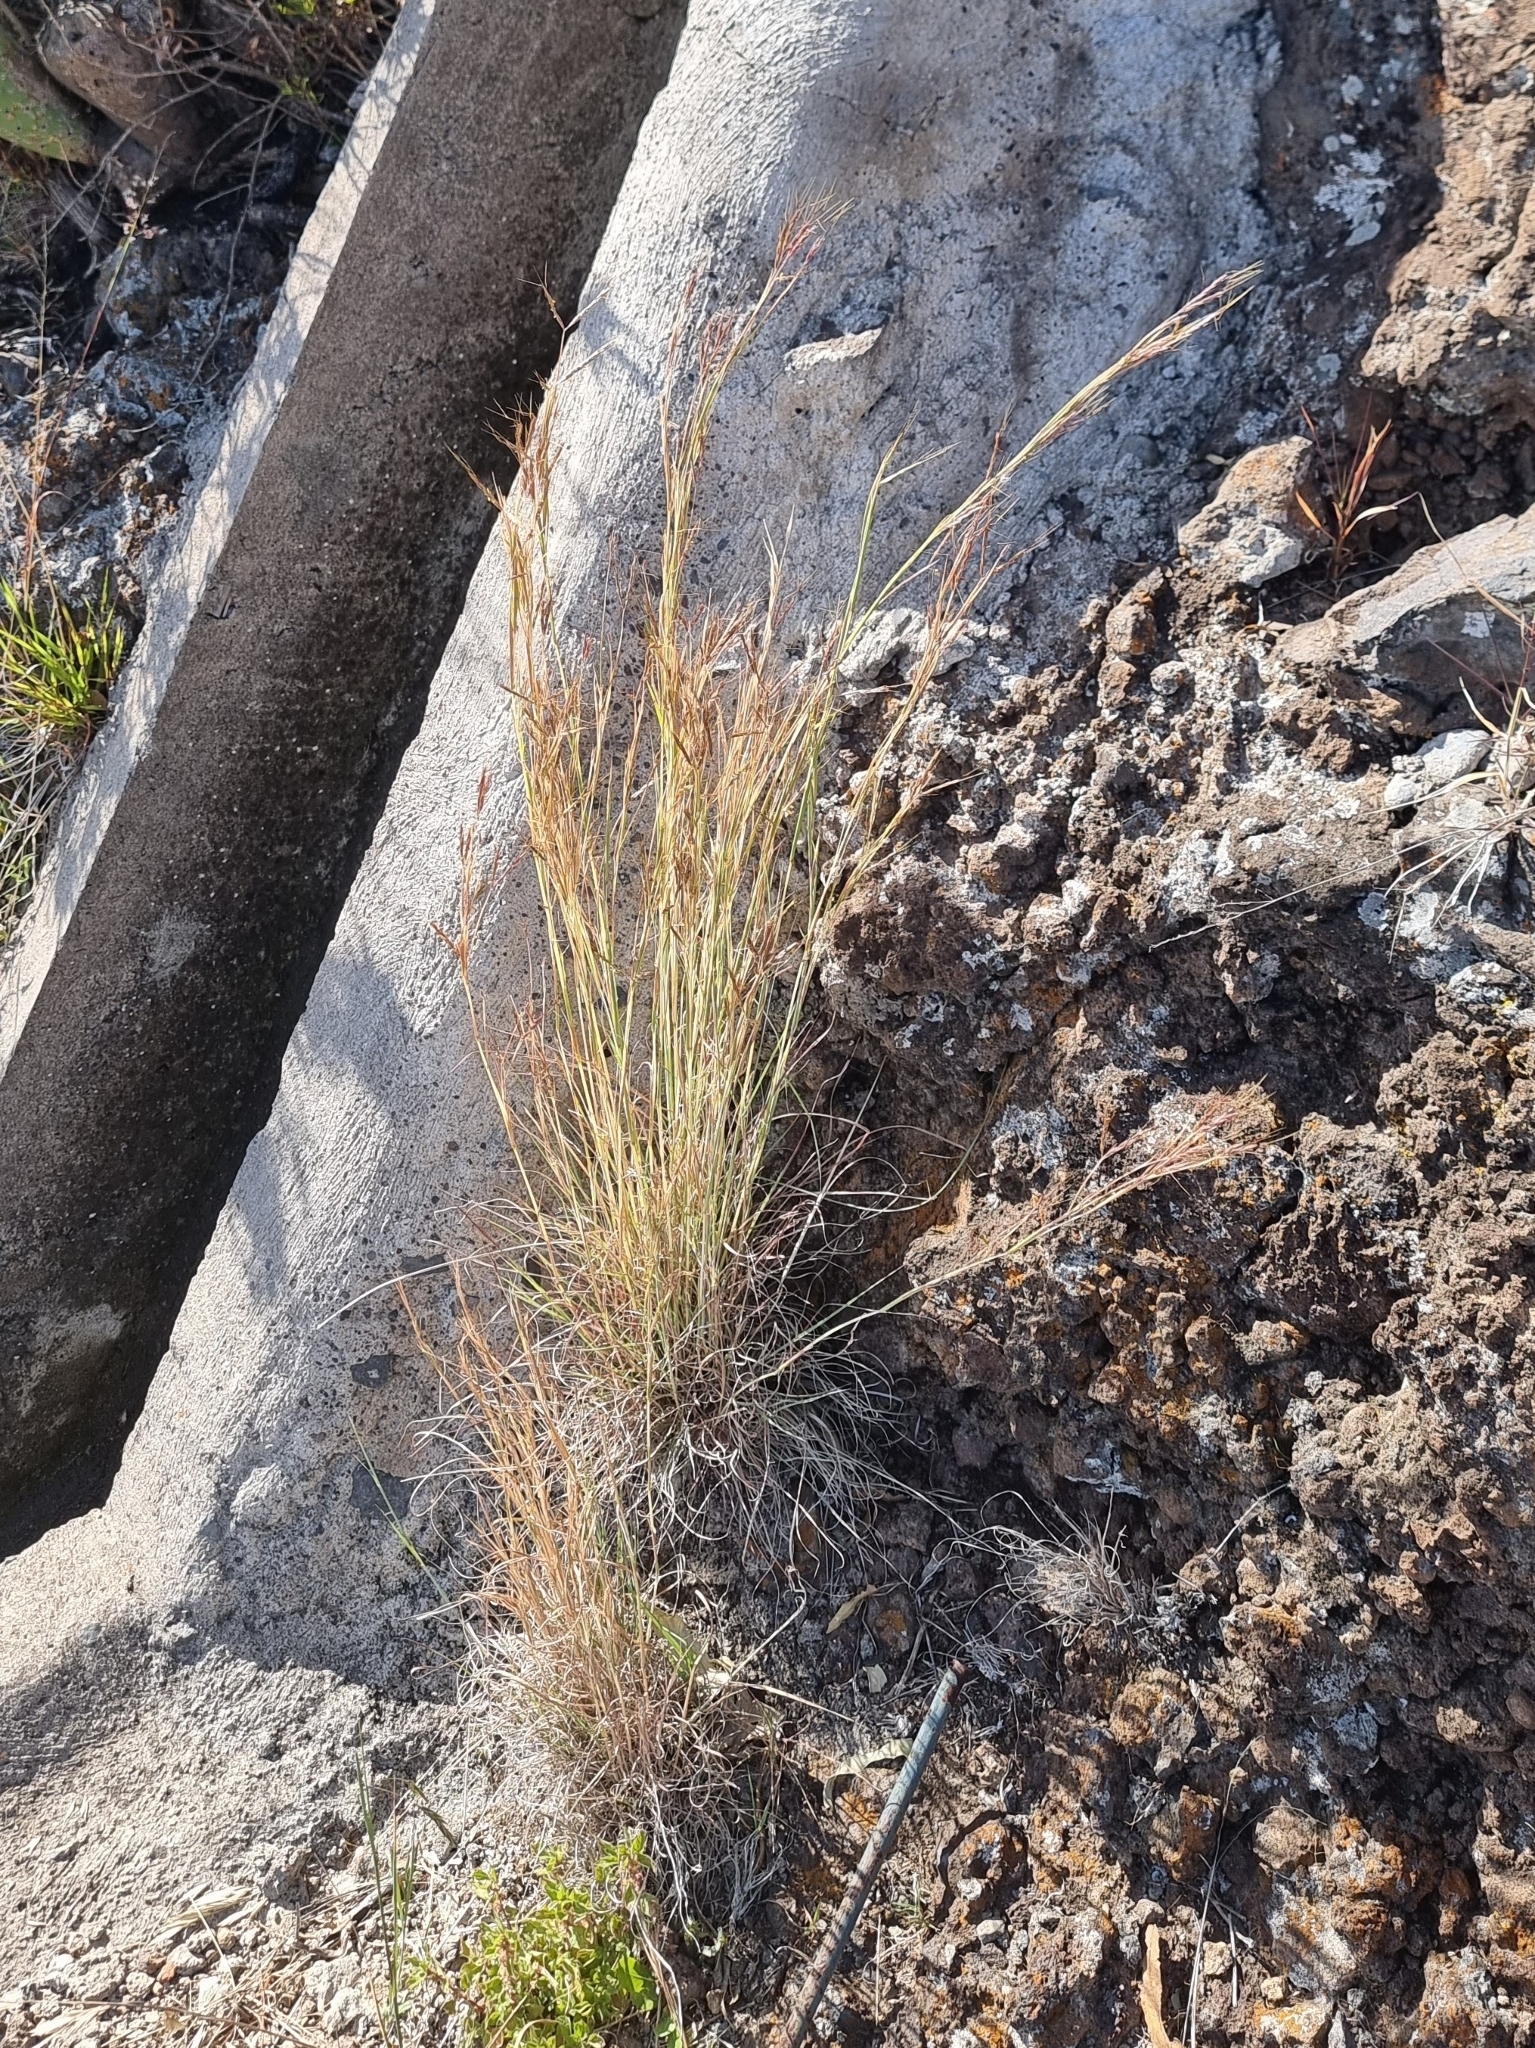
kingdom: Plantae
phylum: Tracheophyta
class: Liliopsida
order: Poales
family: Poaceae
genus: Hyparrhenia
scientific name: Hyparrhenia hirta
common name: Thatching grass
